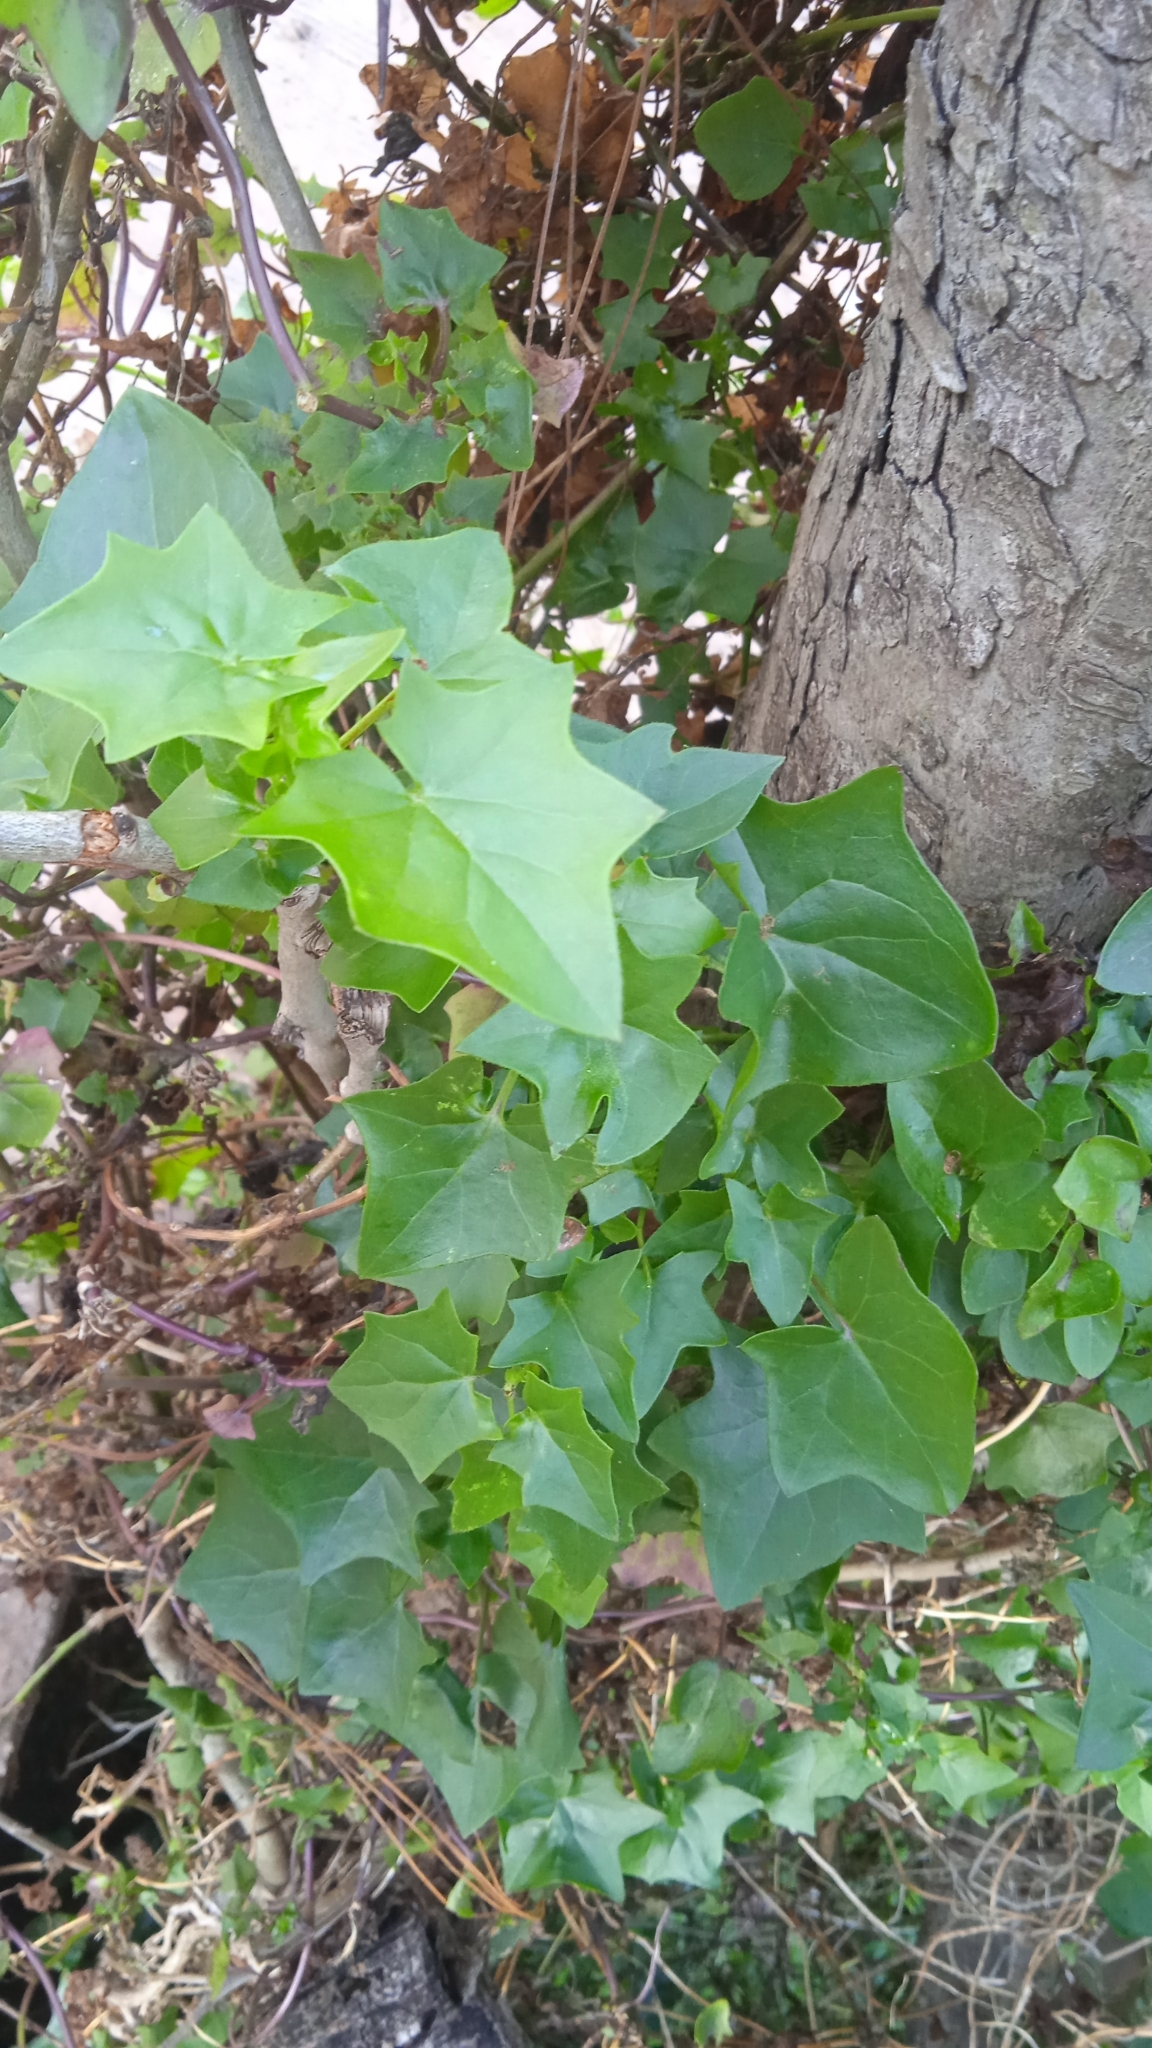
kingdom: Plantae
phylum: Tracheophyta
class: Magnoliopsida
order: Asterales
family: Asteraceae
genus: Senecio
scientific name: Senecio tamoides
